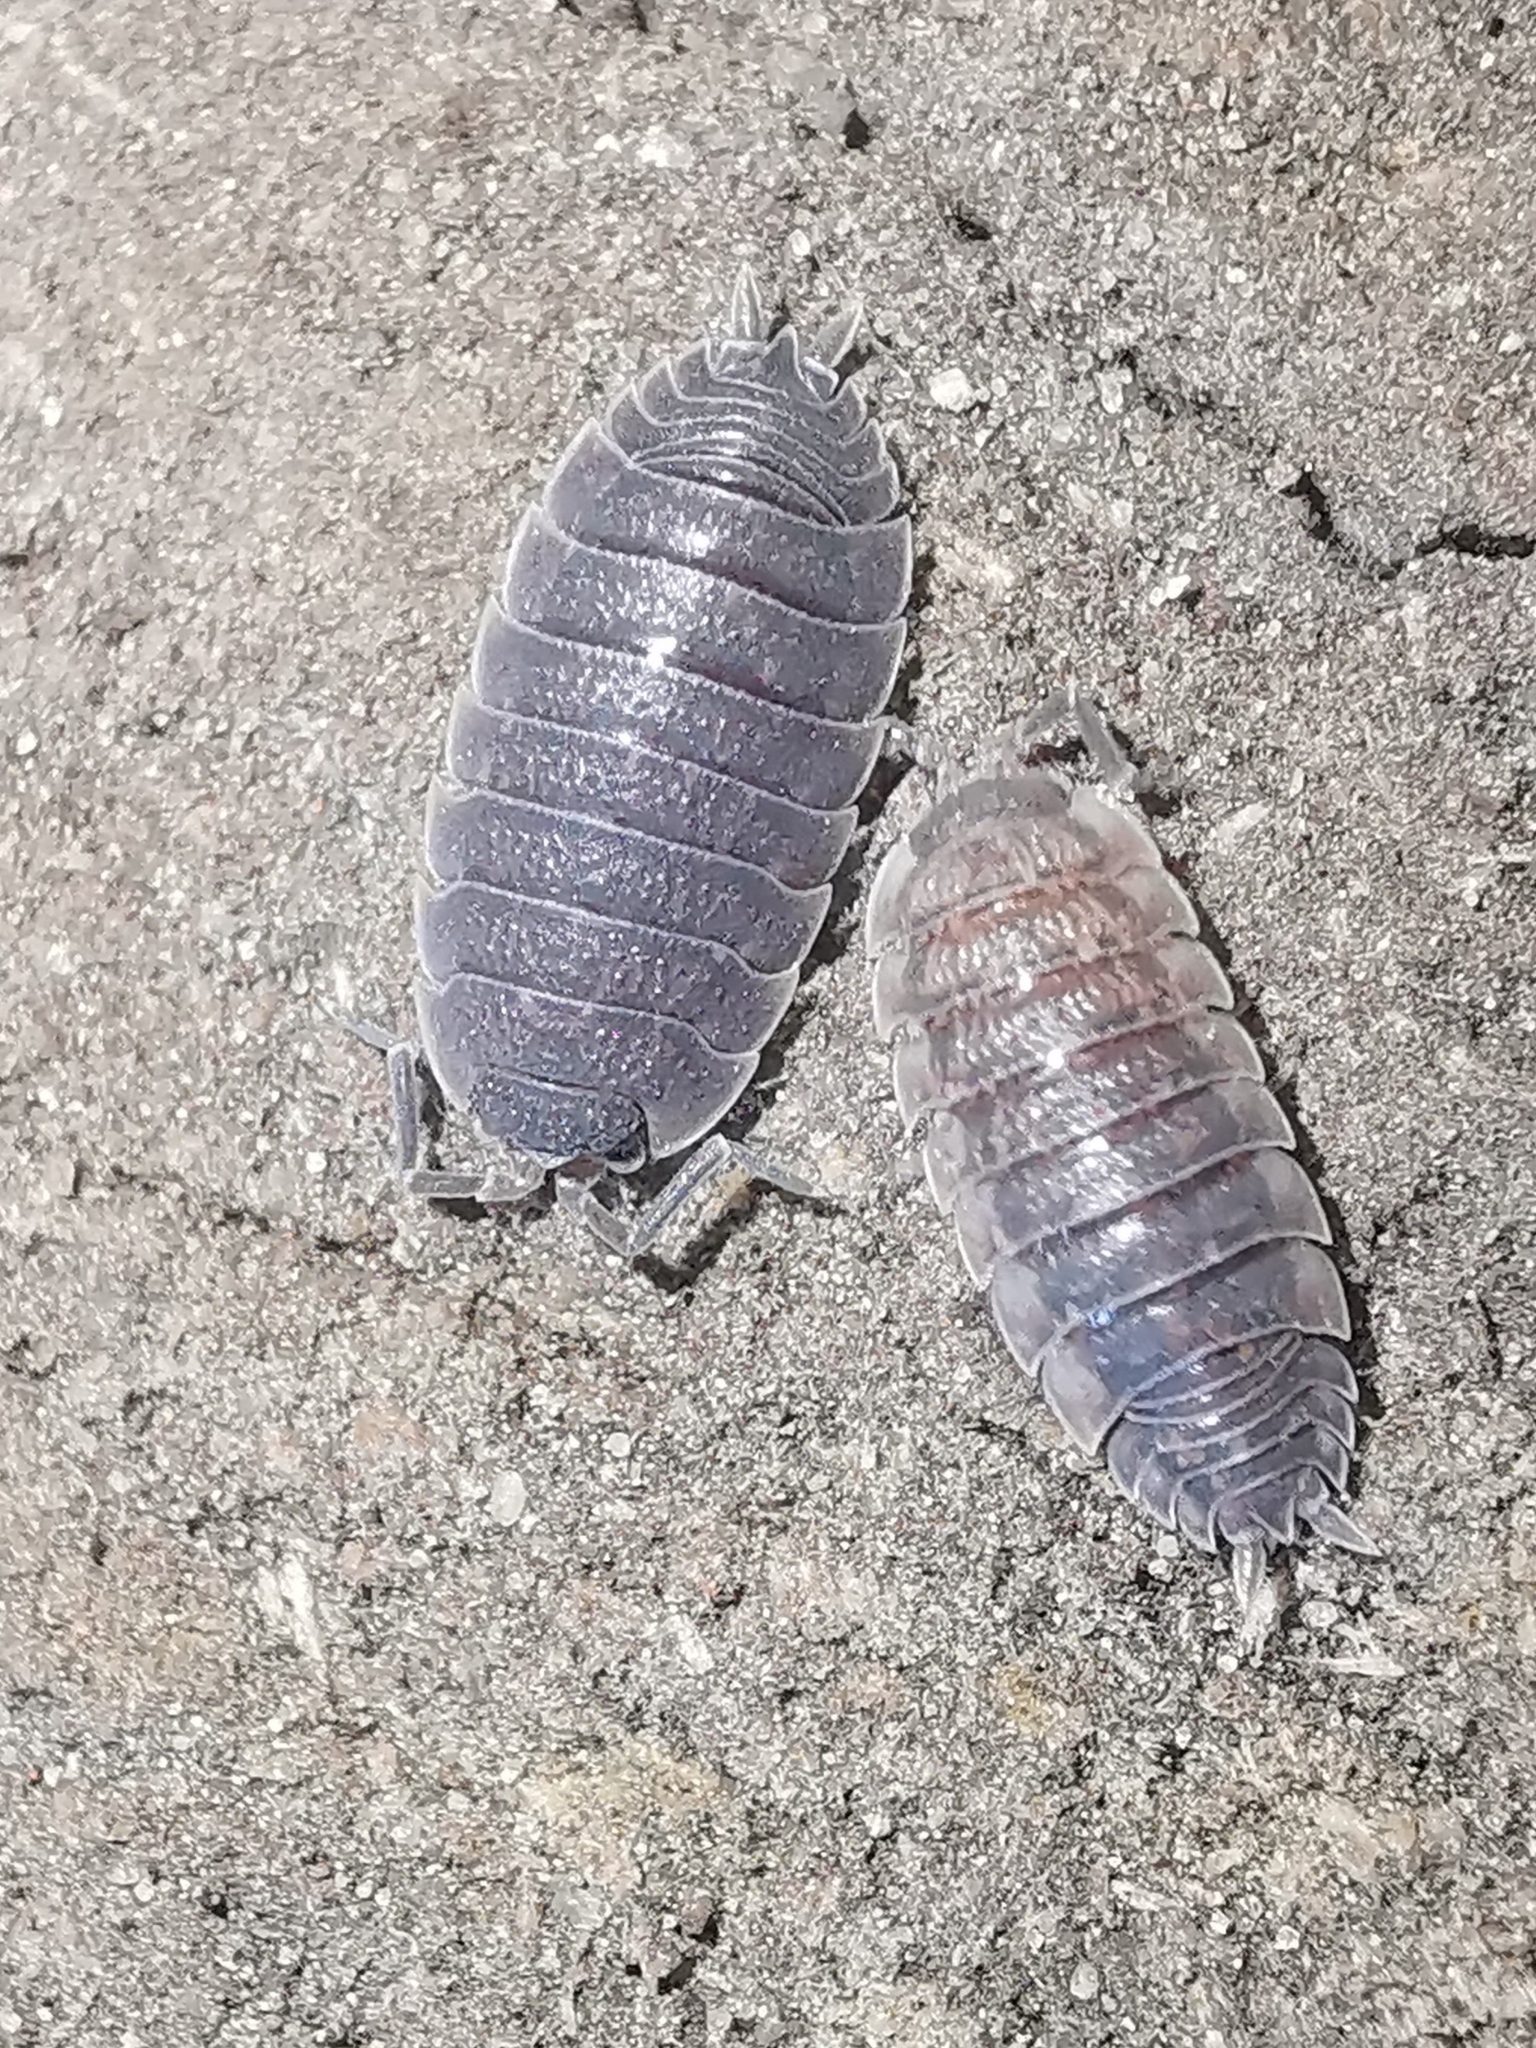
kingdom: Animalia
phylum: Arthropoda
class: Malacostraca
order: Isopoda
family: Porcellionidae
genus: Porcellio
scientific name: Porcellio scaber
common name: Common rough woodlouse
